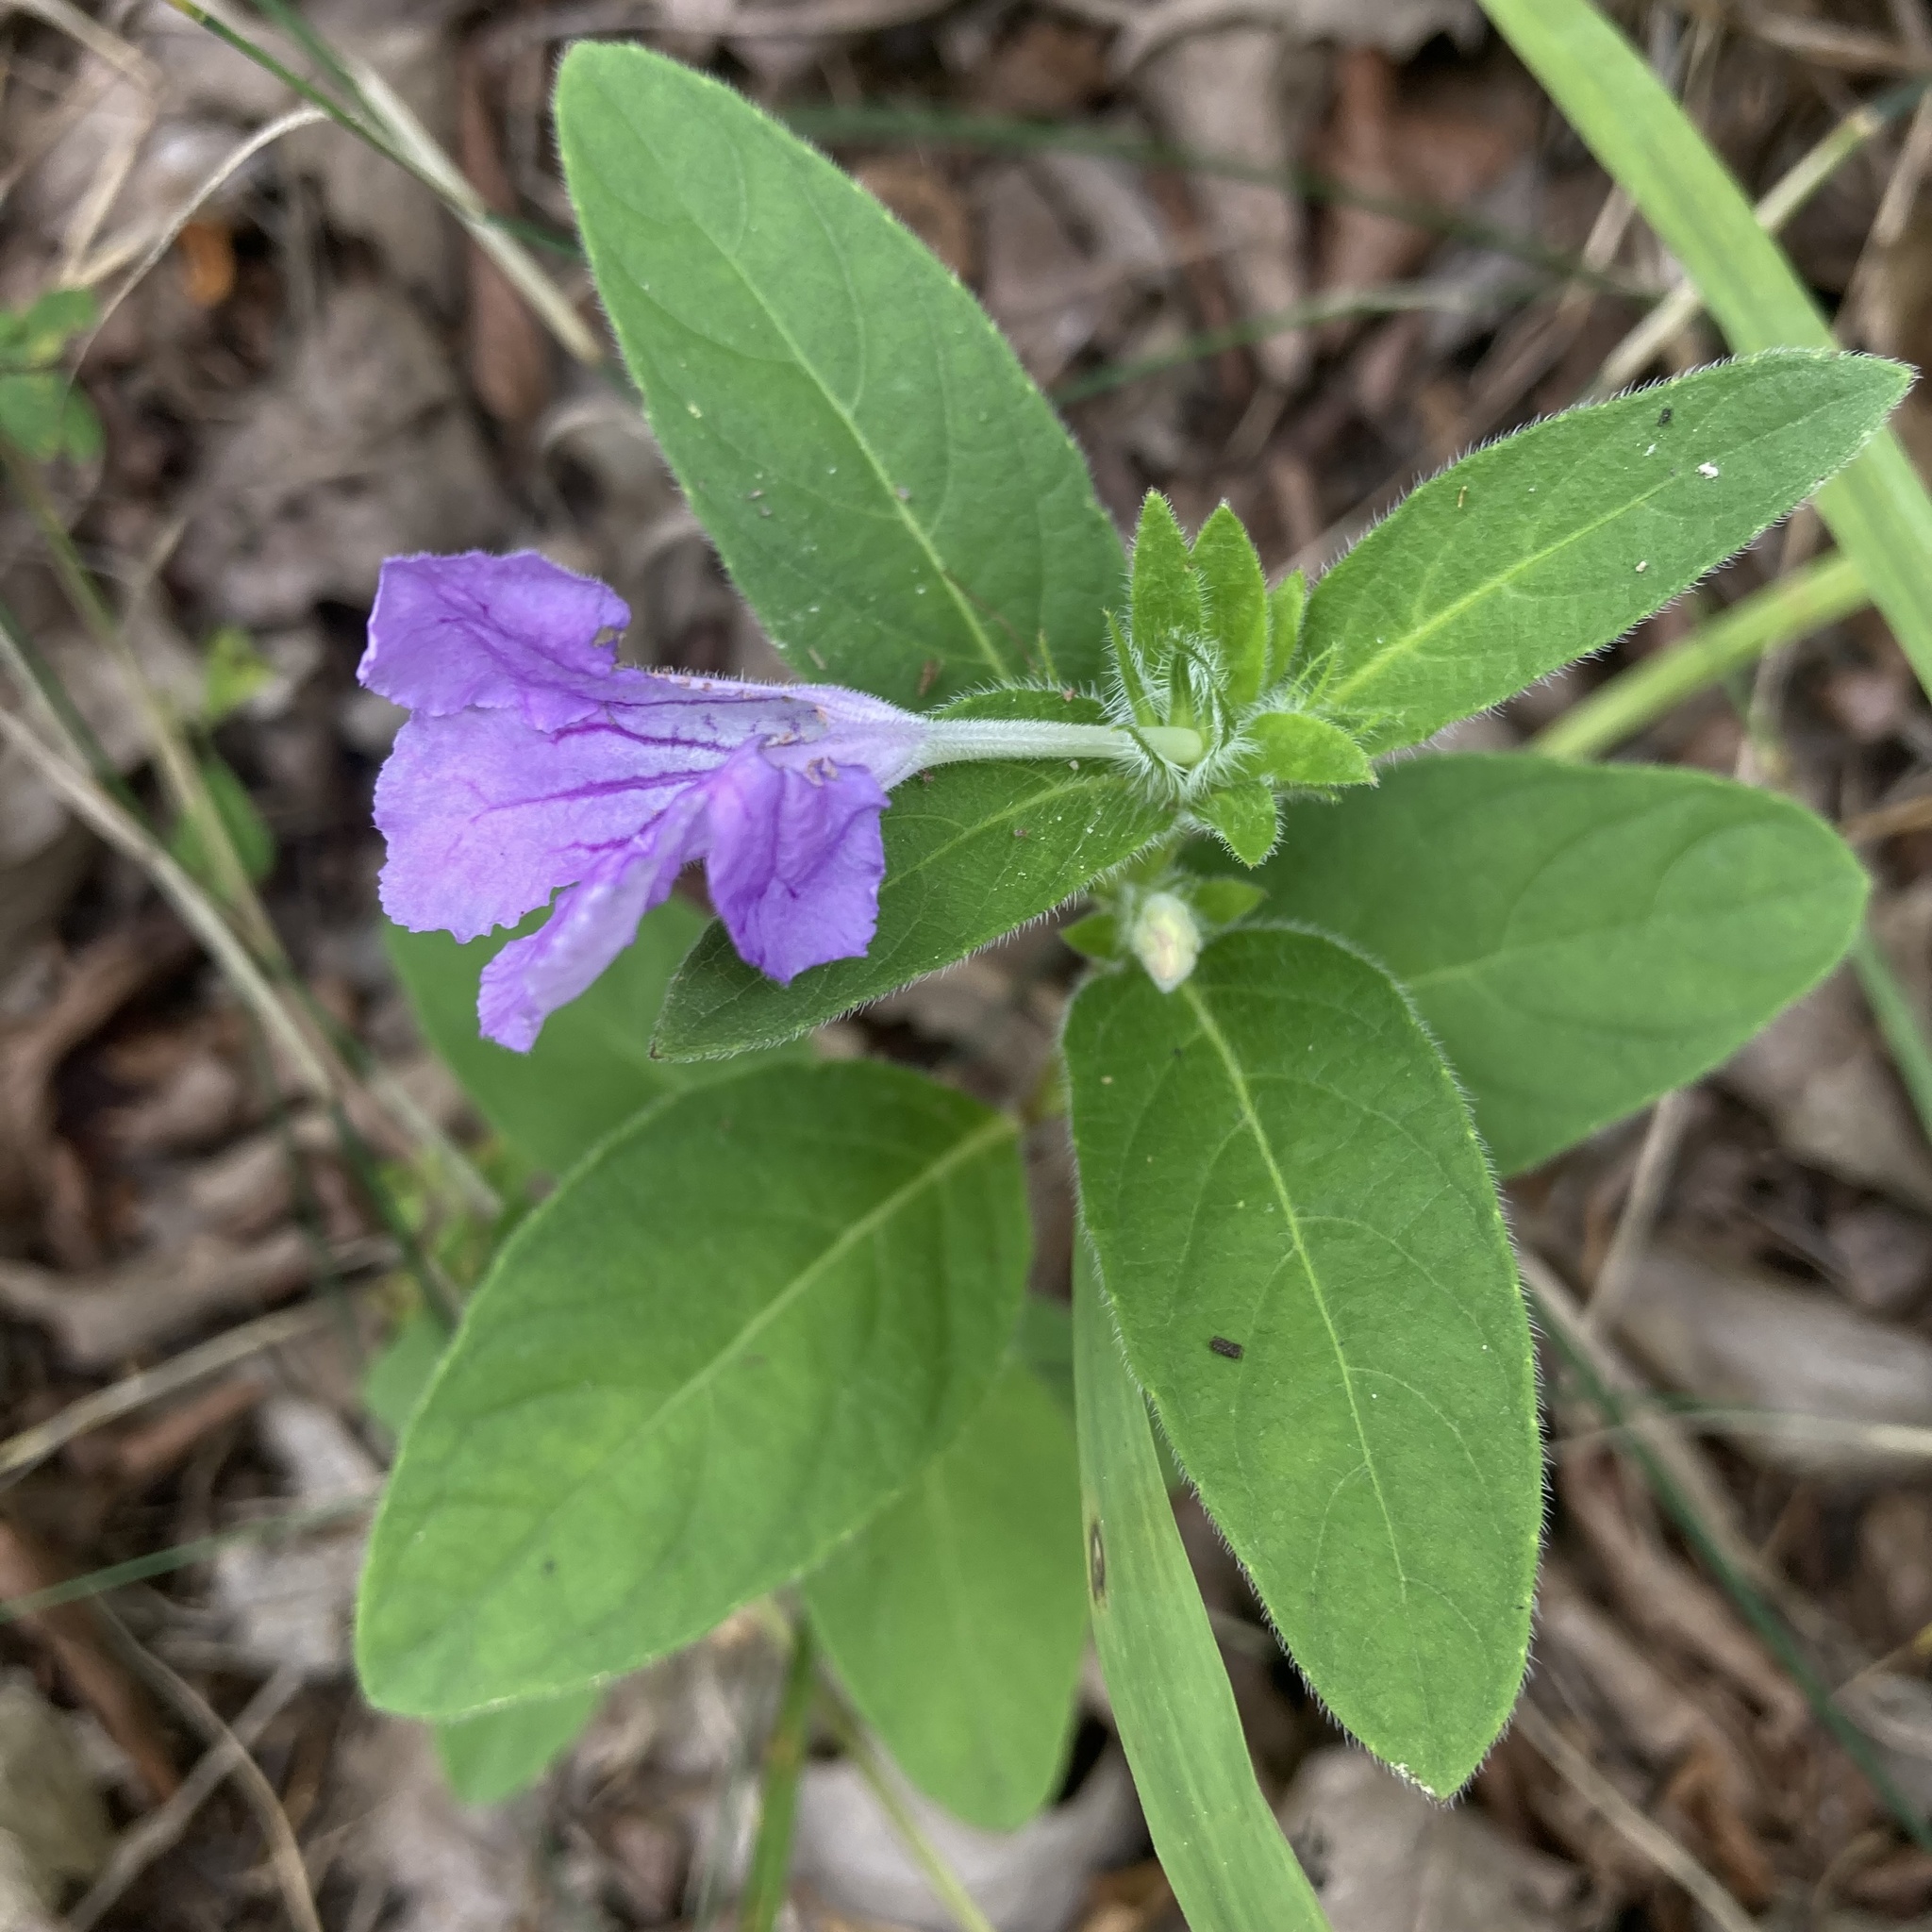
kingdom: Plantae
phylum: Tracheophyta
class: Magnoliopsida
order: Lamiales
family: Acanthaceae
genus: Ruellia
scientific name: Ruellia humilis
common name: Fringe-leaf ruellia
